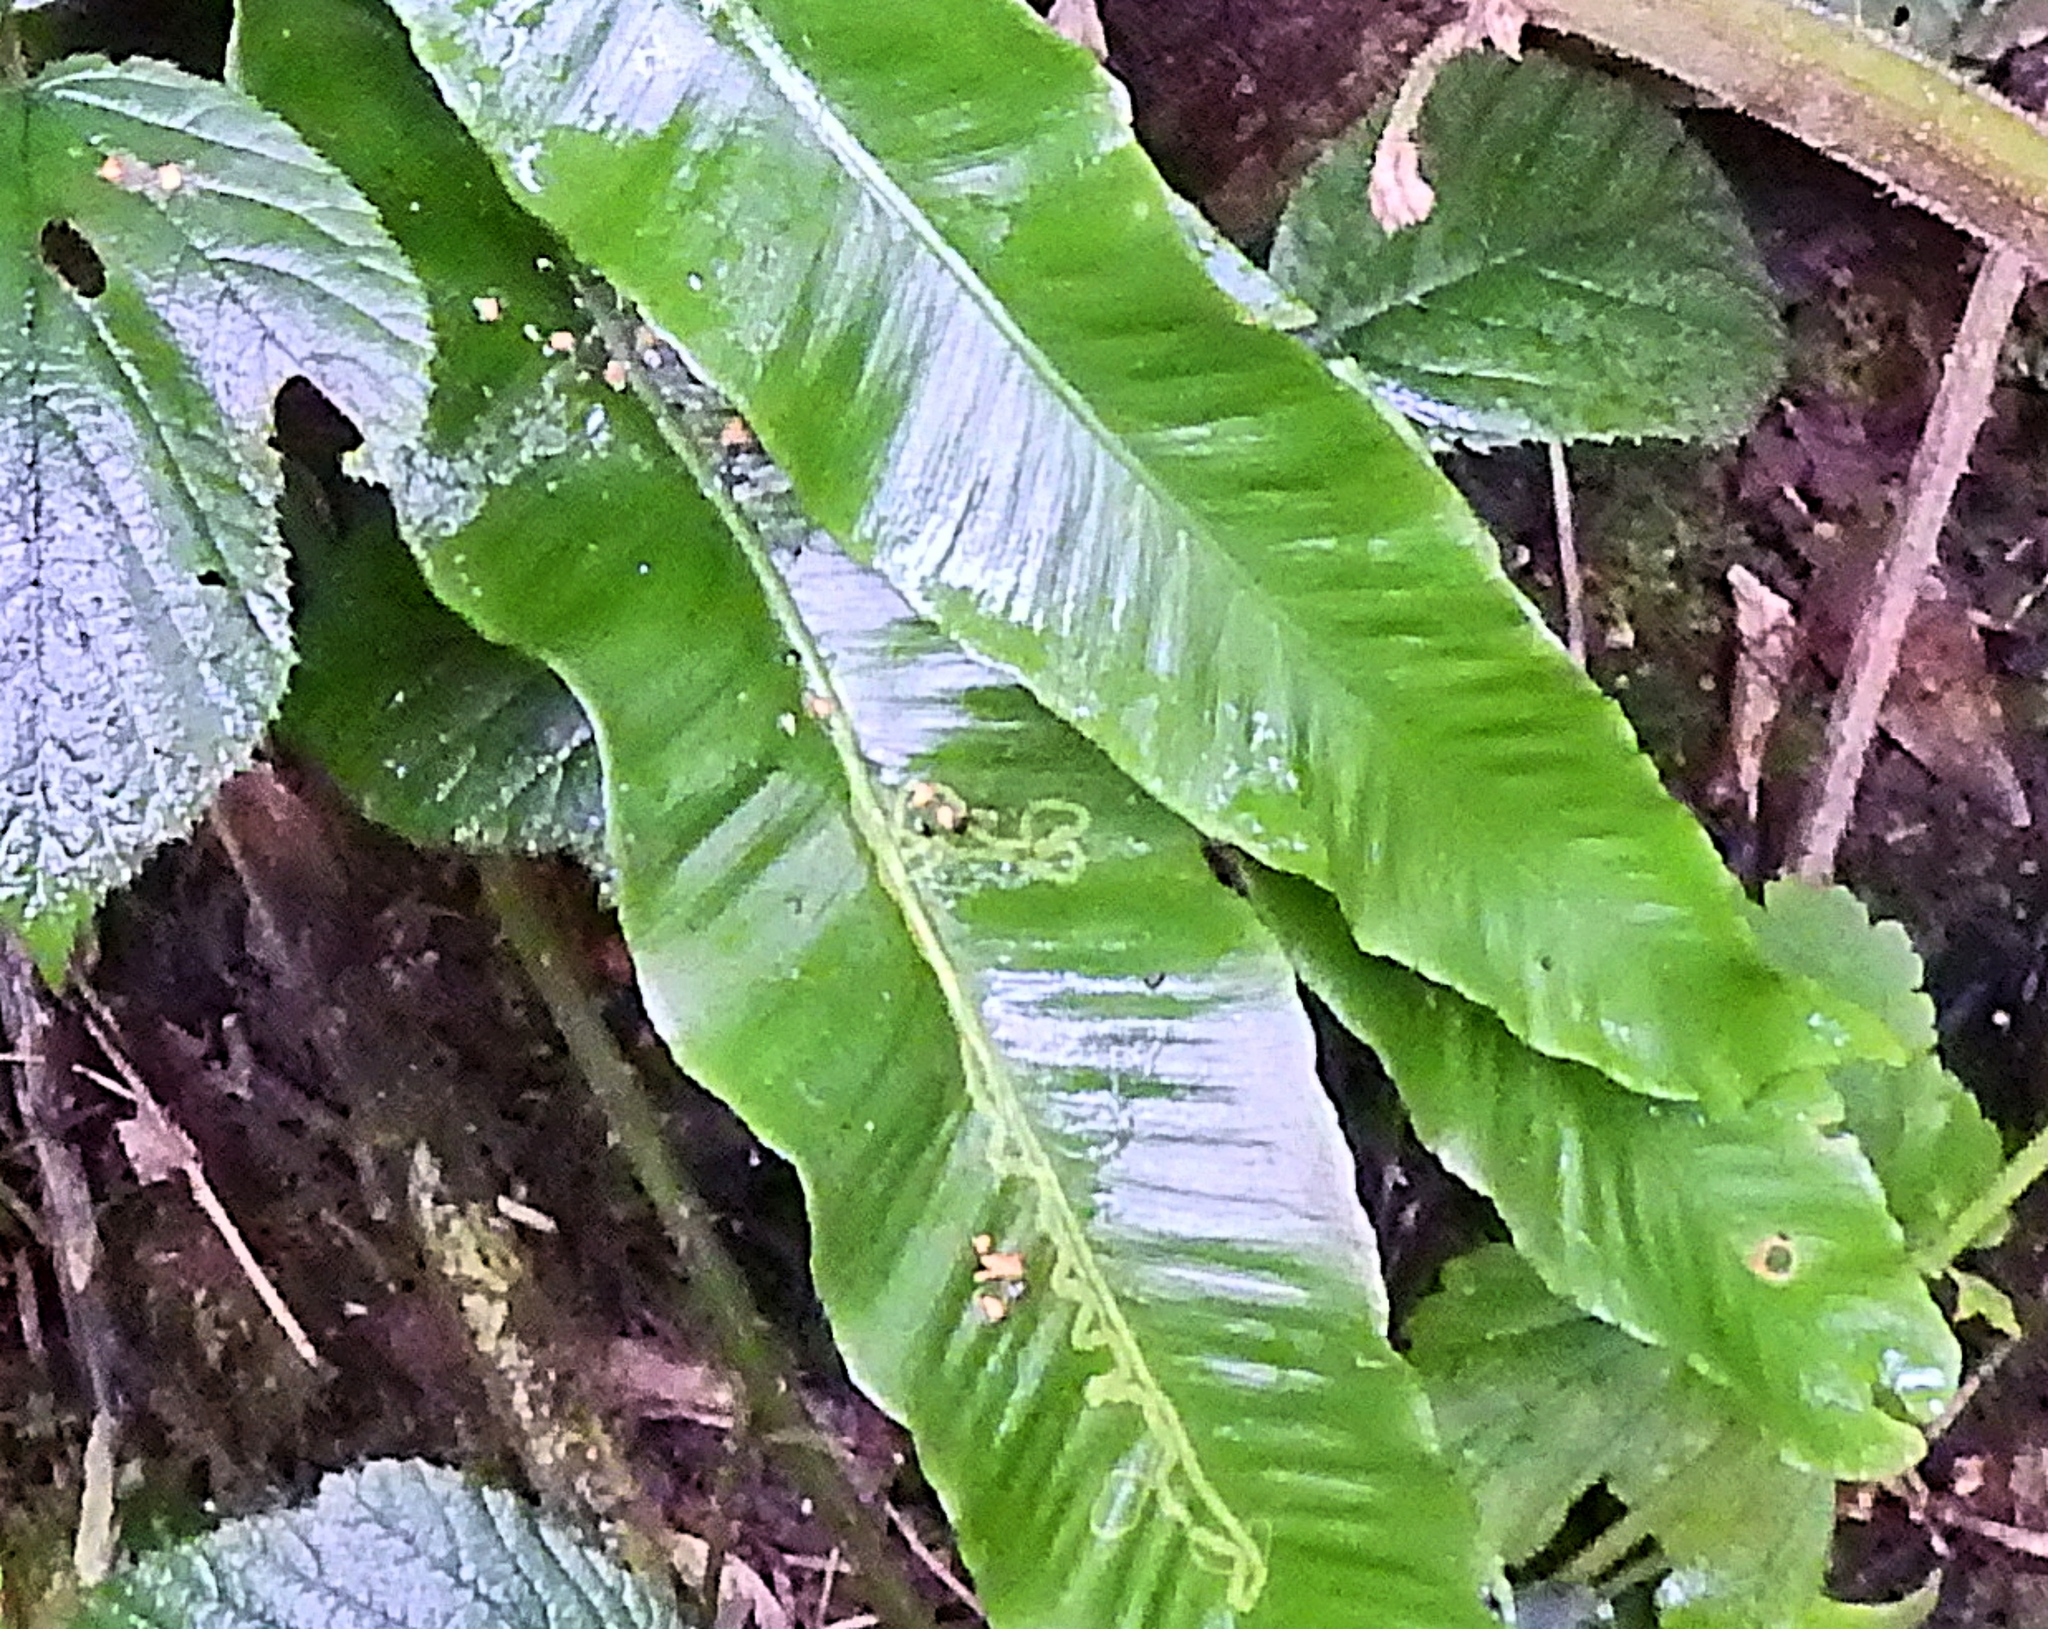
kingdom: Animalia
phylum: Arthropoda
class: Insecta
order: Diptera
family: Agromyzidae
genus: Phytomyza
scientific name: Phytomyza scolopendri
